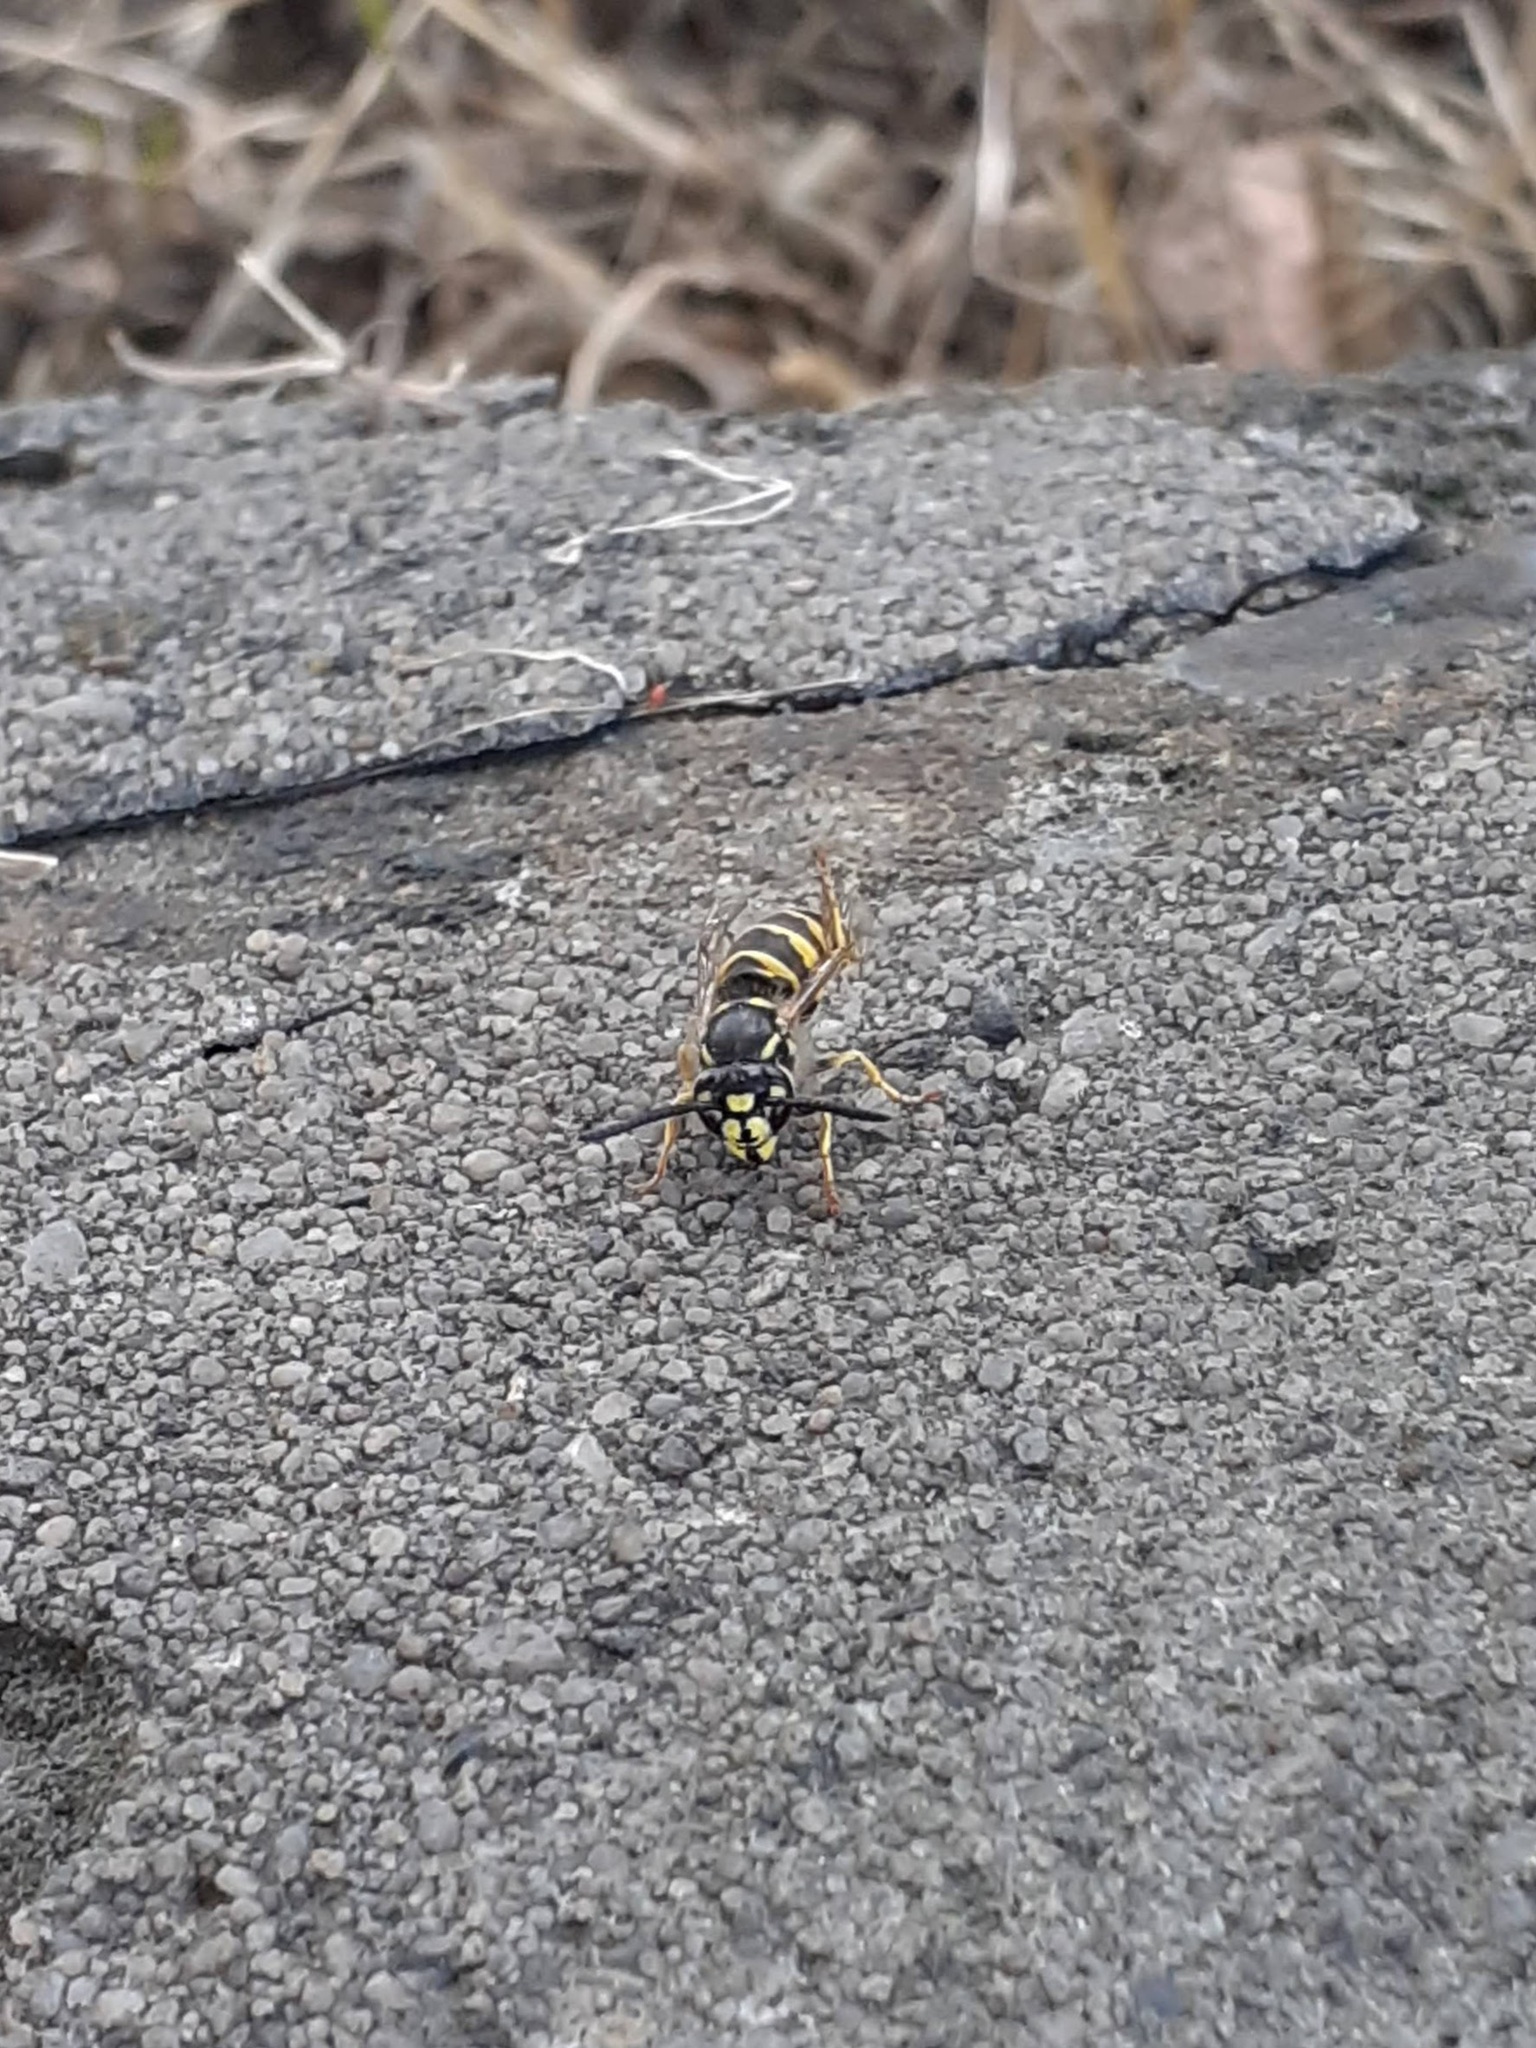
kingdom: Animalia
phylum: Arthropoda
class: Insecta
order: Hymenoptera
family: Vespidae
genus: Vespula
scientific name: Vespula vulgaris
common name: Common wasp
